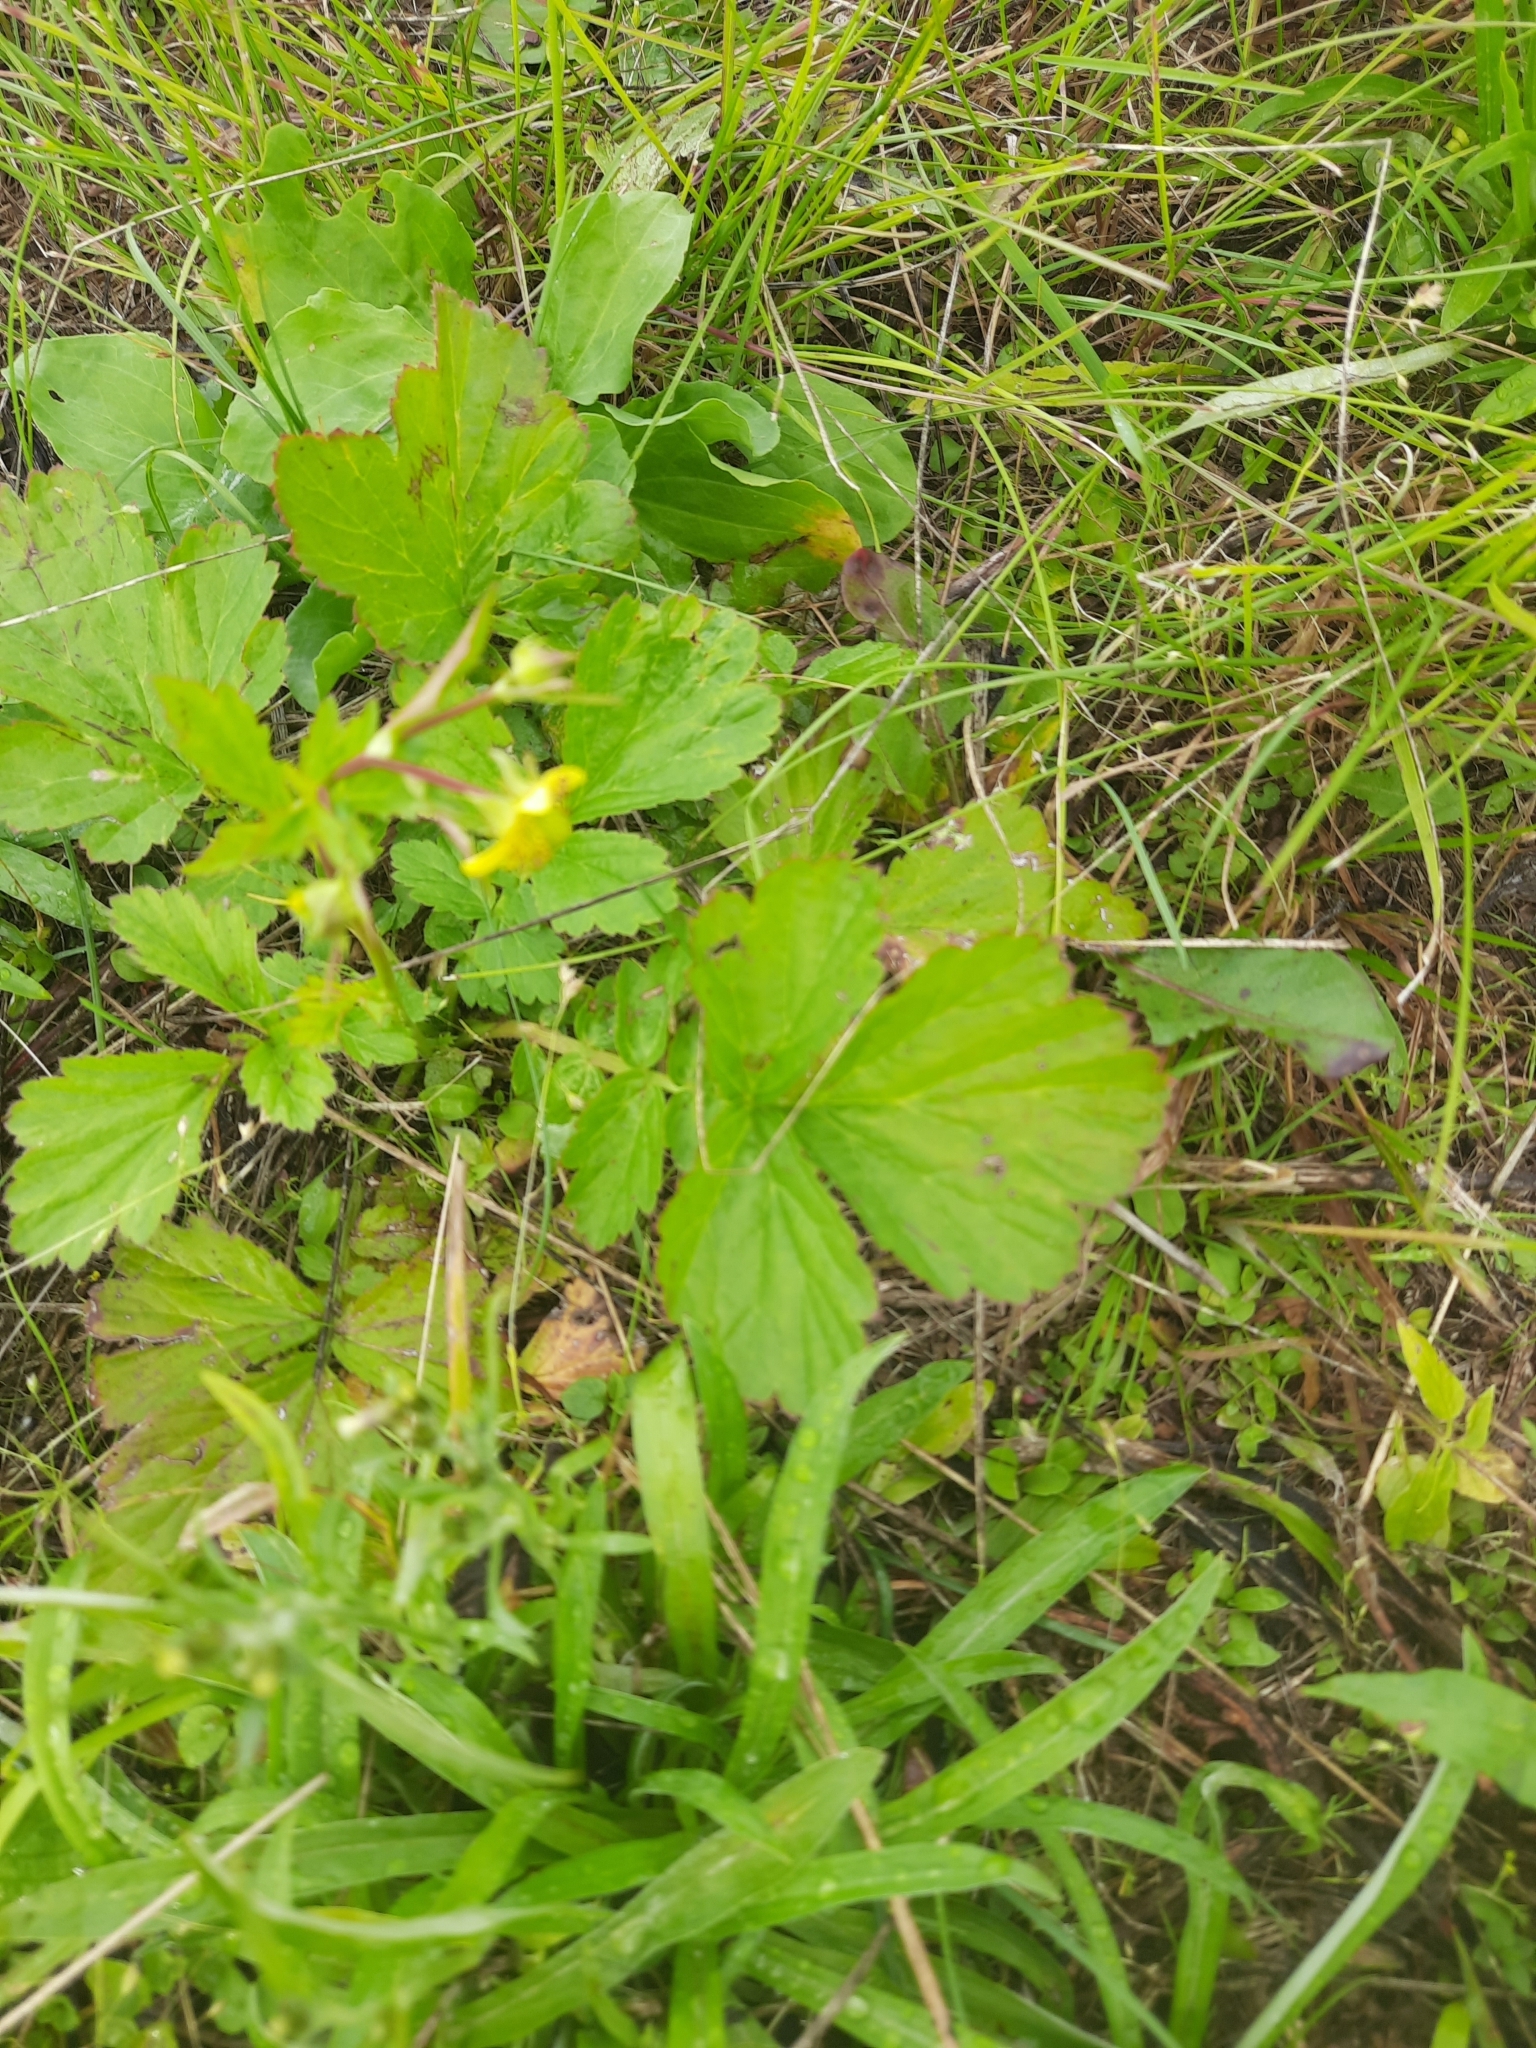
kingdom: Plantae
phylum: Tracheophyta
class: Magnoliopsida
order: Rosales
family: Rosaceae
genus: Geum
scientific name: Geum aleppicum
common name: Yellow avens
